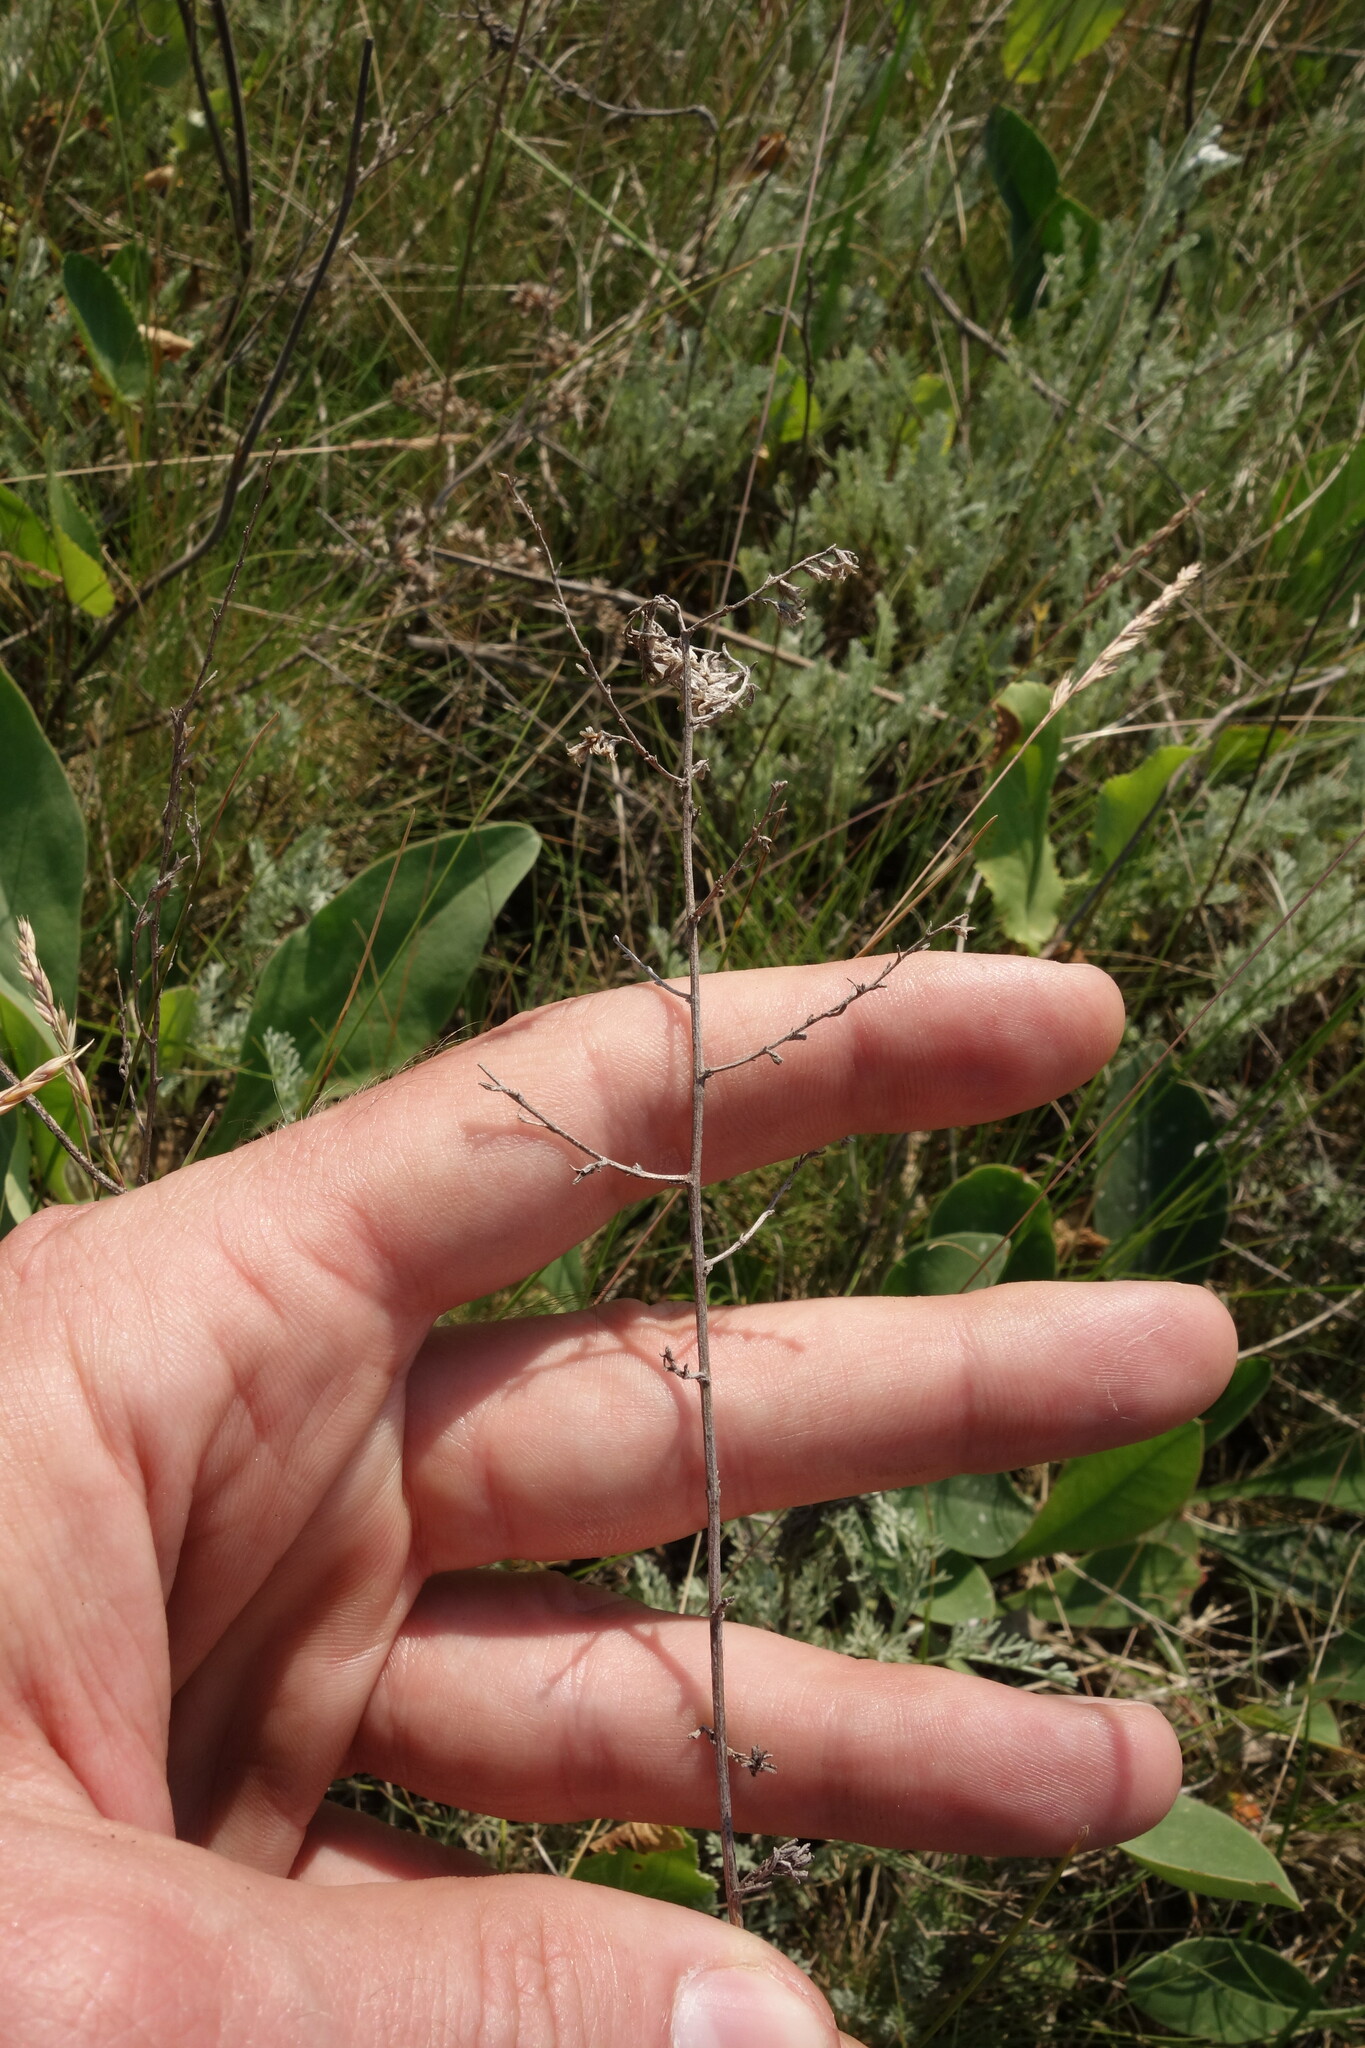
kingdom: Plantae
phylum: Tracheophyta
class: Magnoliopsida
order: Asterales
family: Asteraceae
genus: Artemisia
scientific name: Artemisia santonicum
